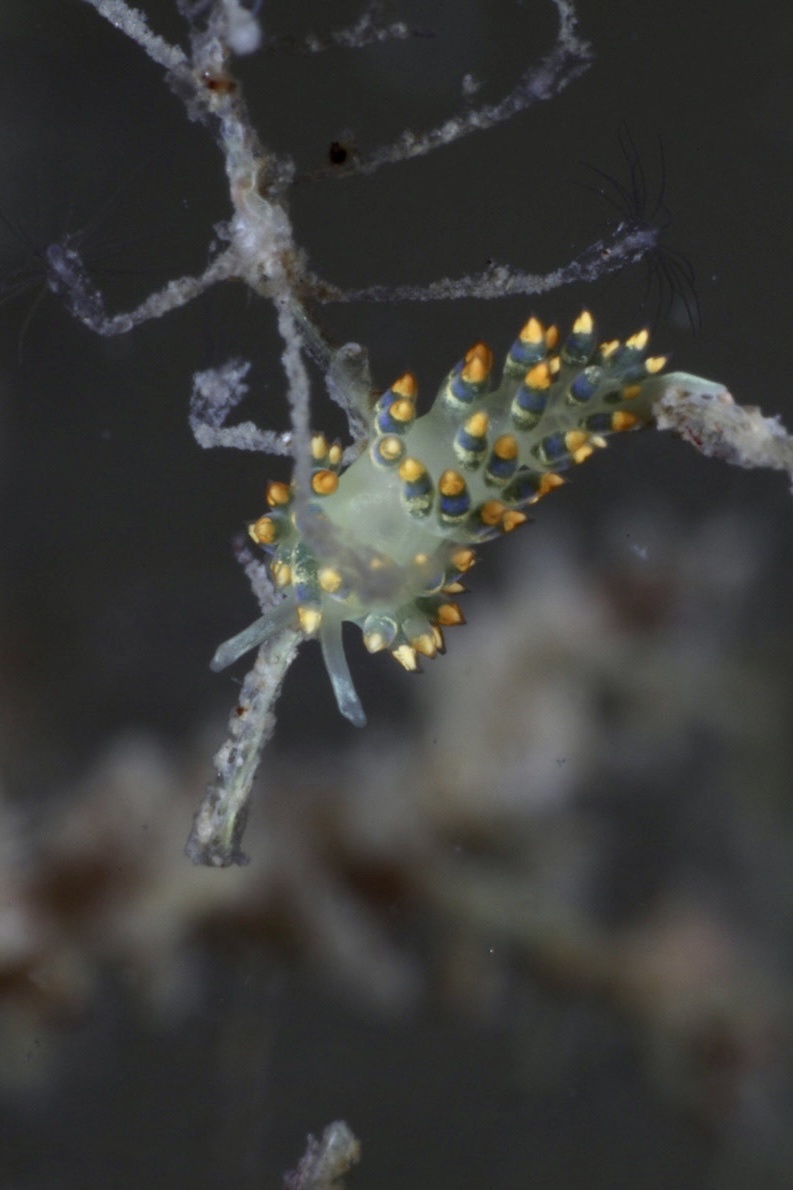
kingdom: Animalia
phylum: Mollusca
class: Gastropoda
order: Nudibranchia
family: Trinchesiidae
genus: Trinchesia
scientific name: Trinchesia cuanensis
